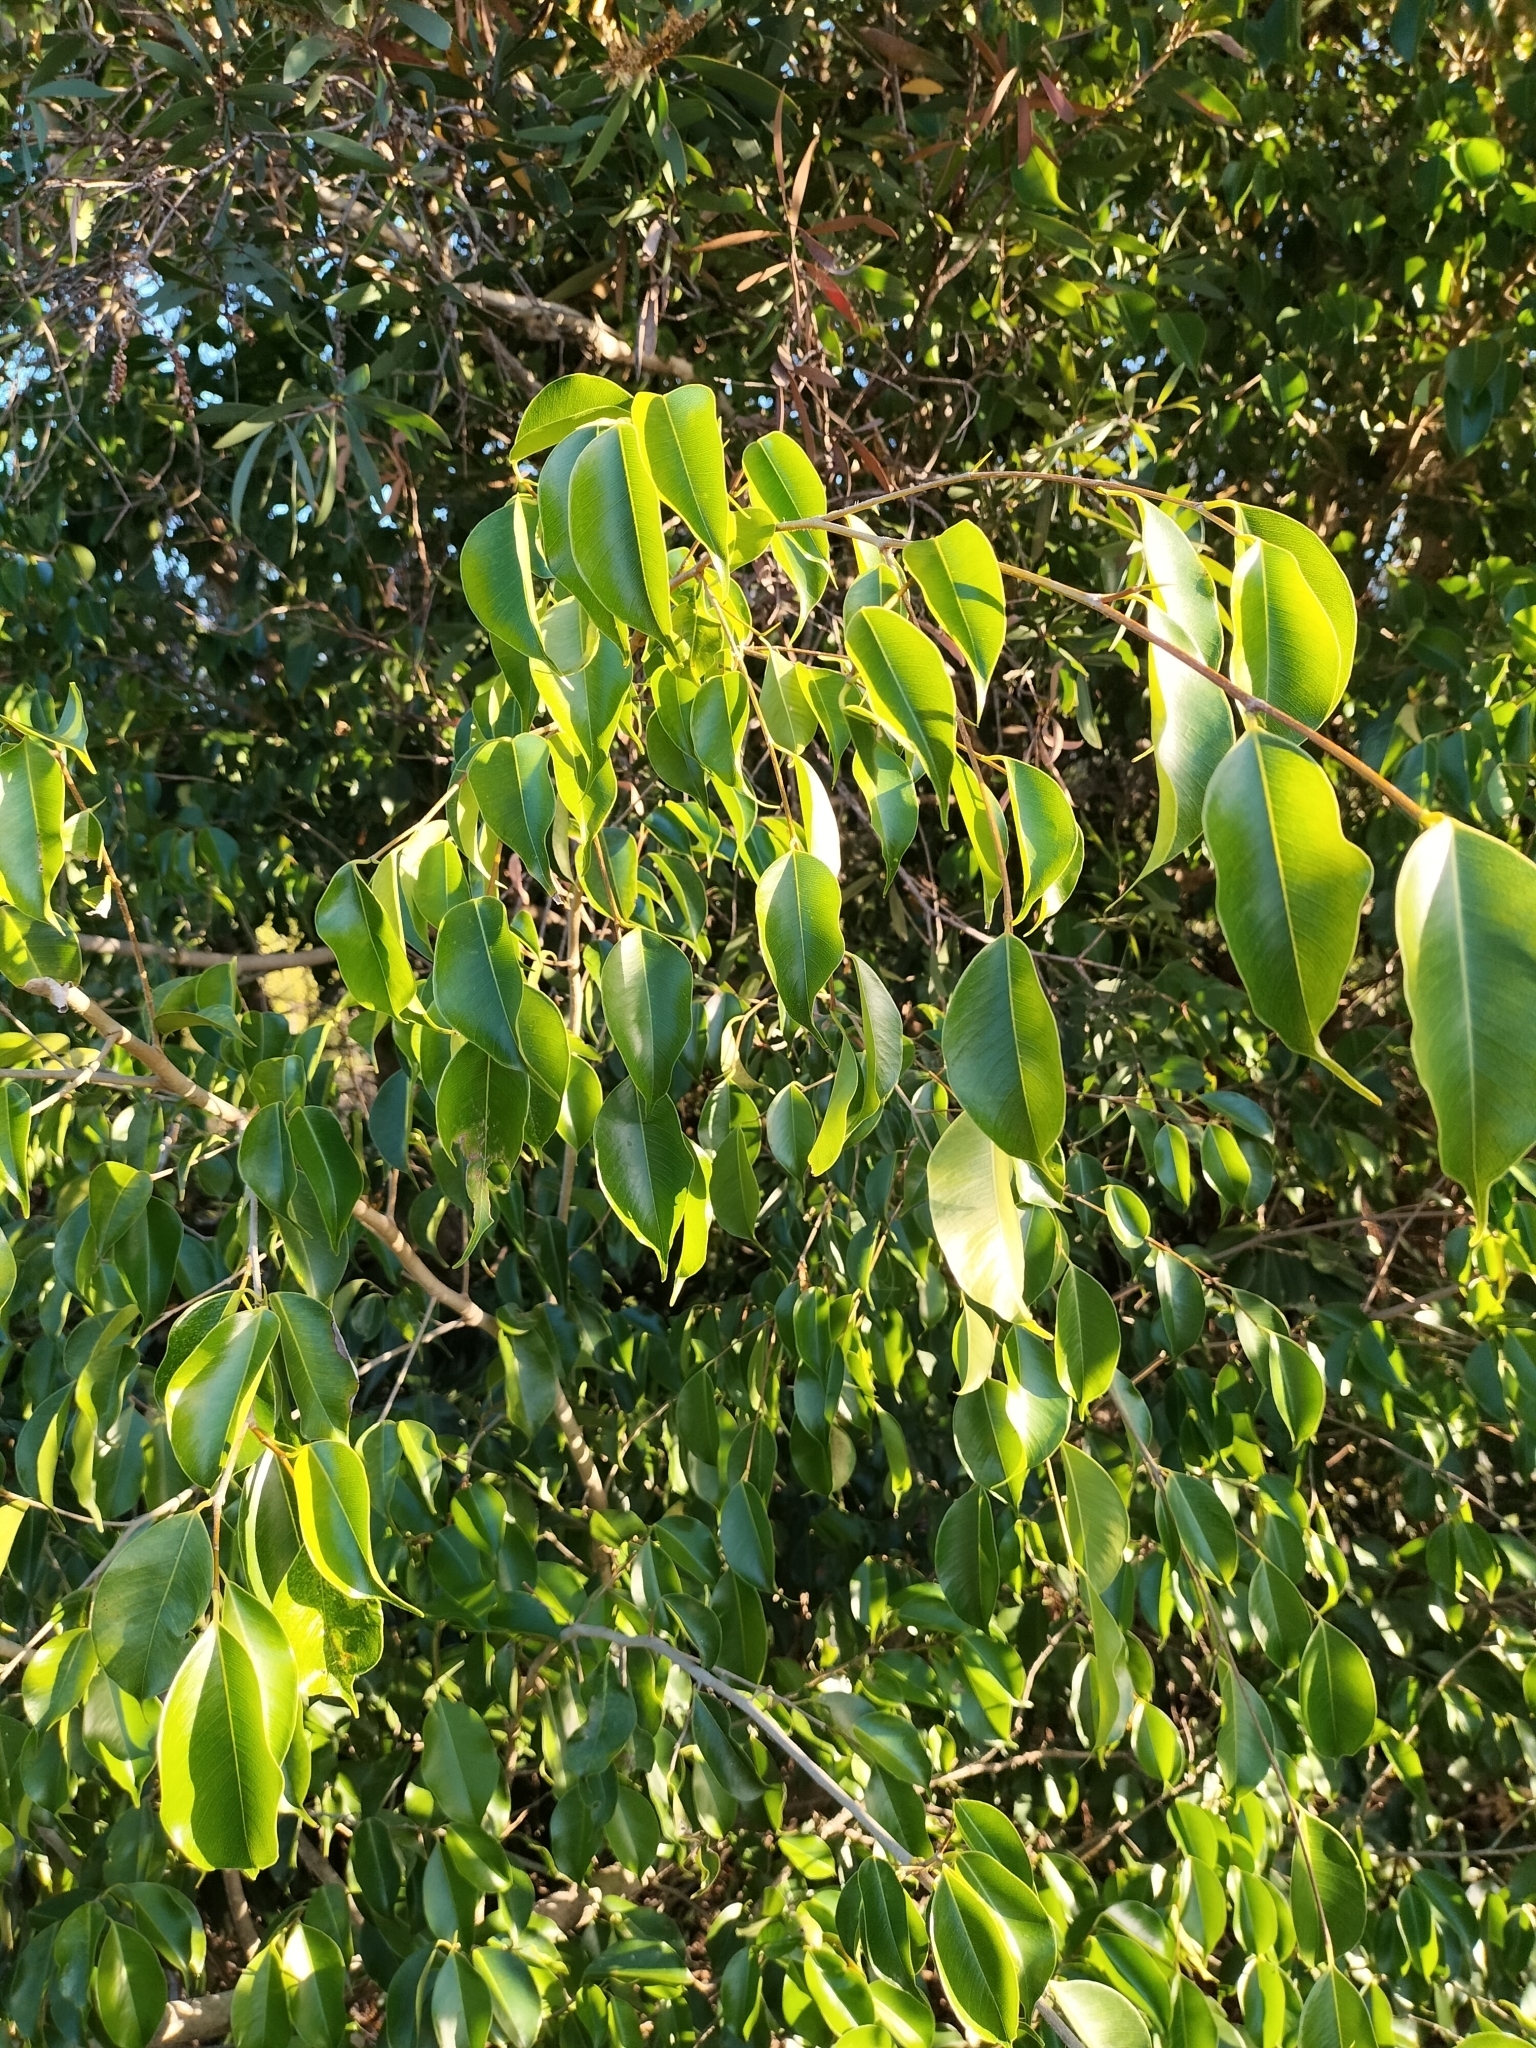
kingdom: Plantae
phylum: Tracheophyta
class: Magnoliopsida
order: Rosales
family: Moraceae
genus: Ficus
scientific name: Ficus benjamina
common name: Weeping fig
